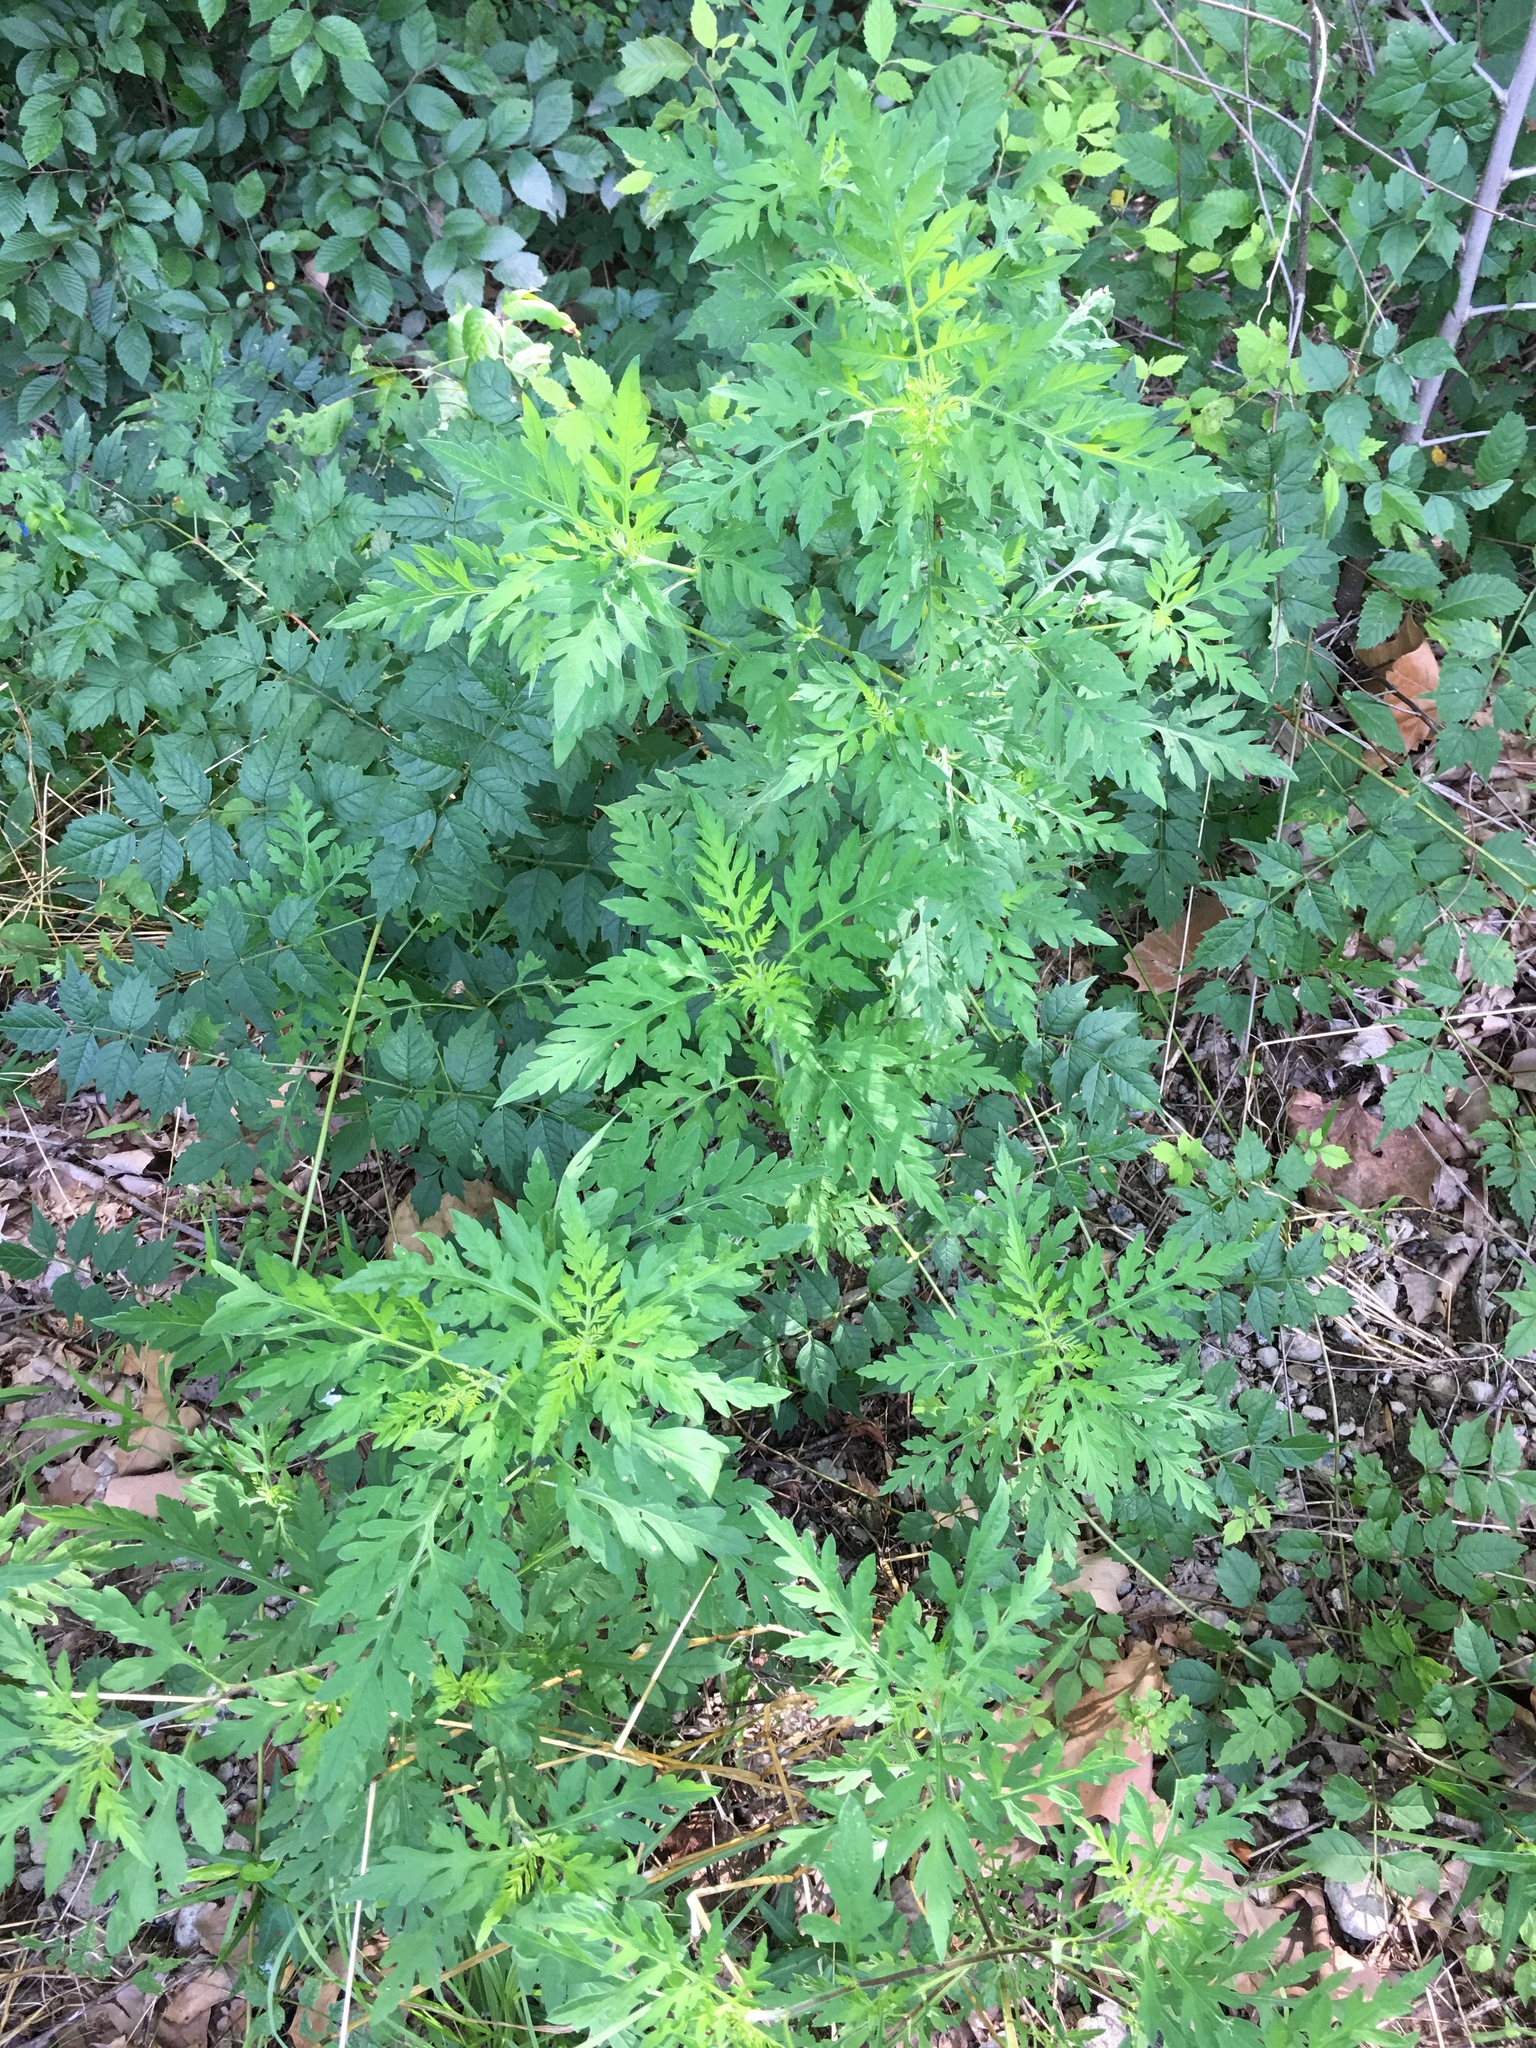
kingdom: Plantae
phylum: Tracheophyta
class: Magnoliopsida
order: Asterales
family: Asteraceae
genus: Ambrosia
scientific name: Ambrosia artemisiifolia
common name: Annual ragweed
